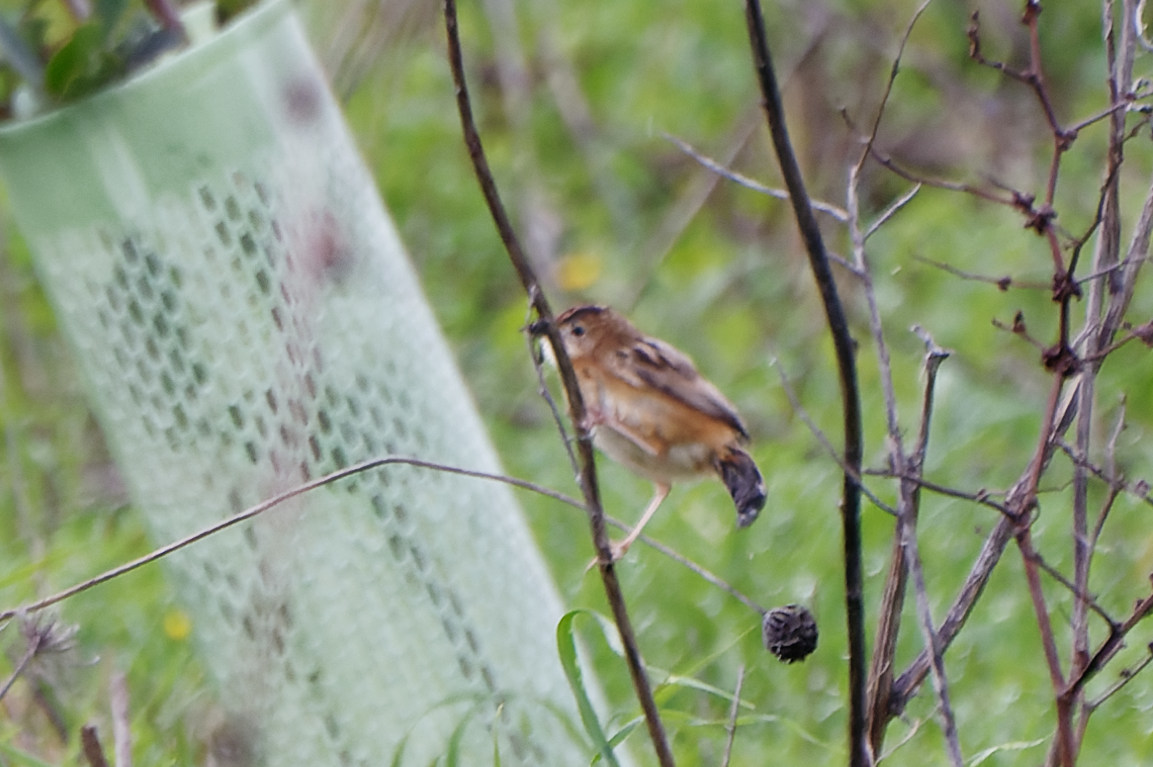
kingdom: Animalia
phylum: Chordata
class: Aves
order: Passeriformes
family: Cisticolidae
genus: Cisticola
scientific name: Cisticola juncidis
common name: Zitting cisticola
